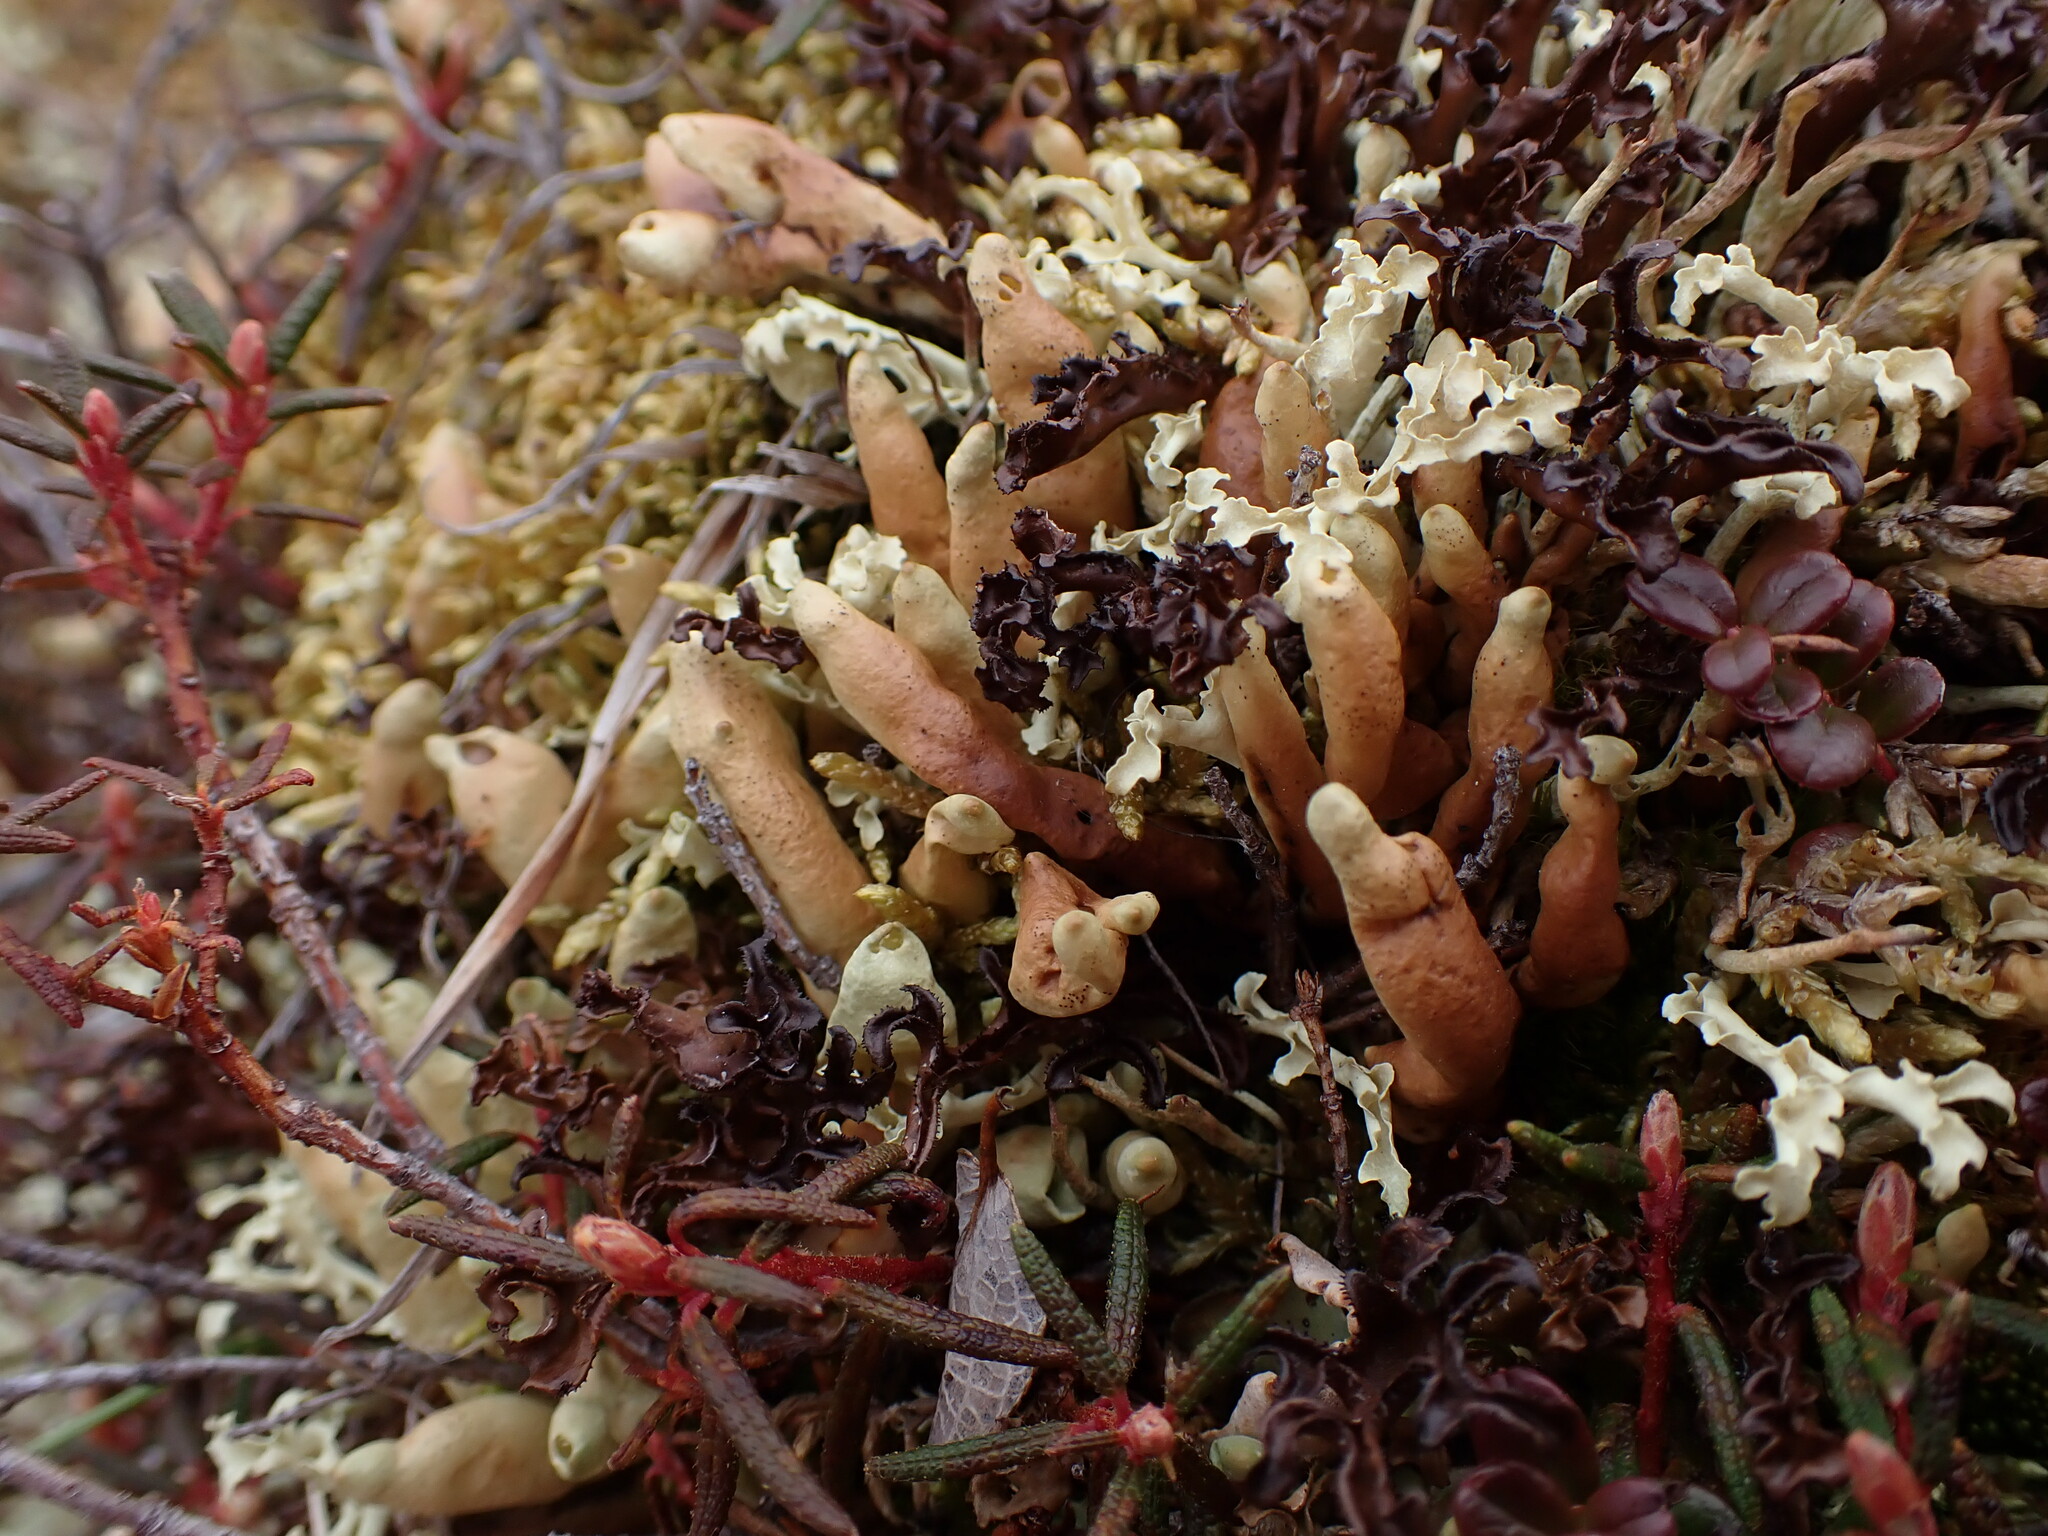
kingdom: Fungi
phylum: Ascomycota
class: Lecanoromycetes
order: Lecanorales
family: Parmeliaceae
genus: Dactylina
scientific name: Dactylina arctica
